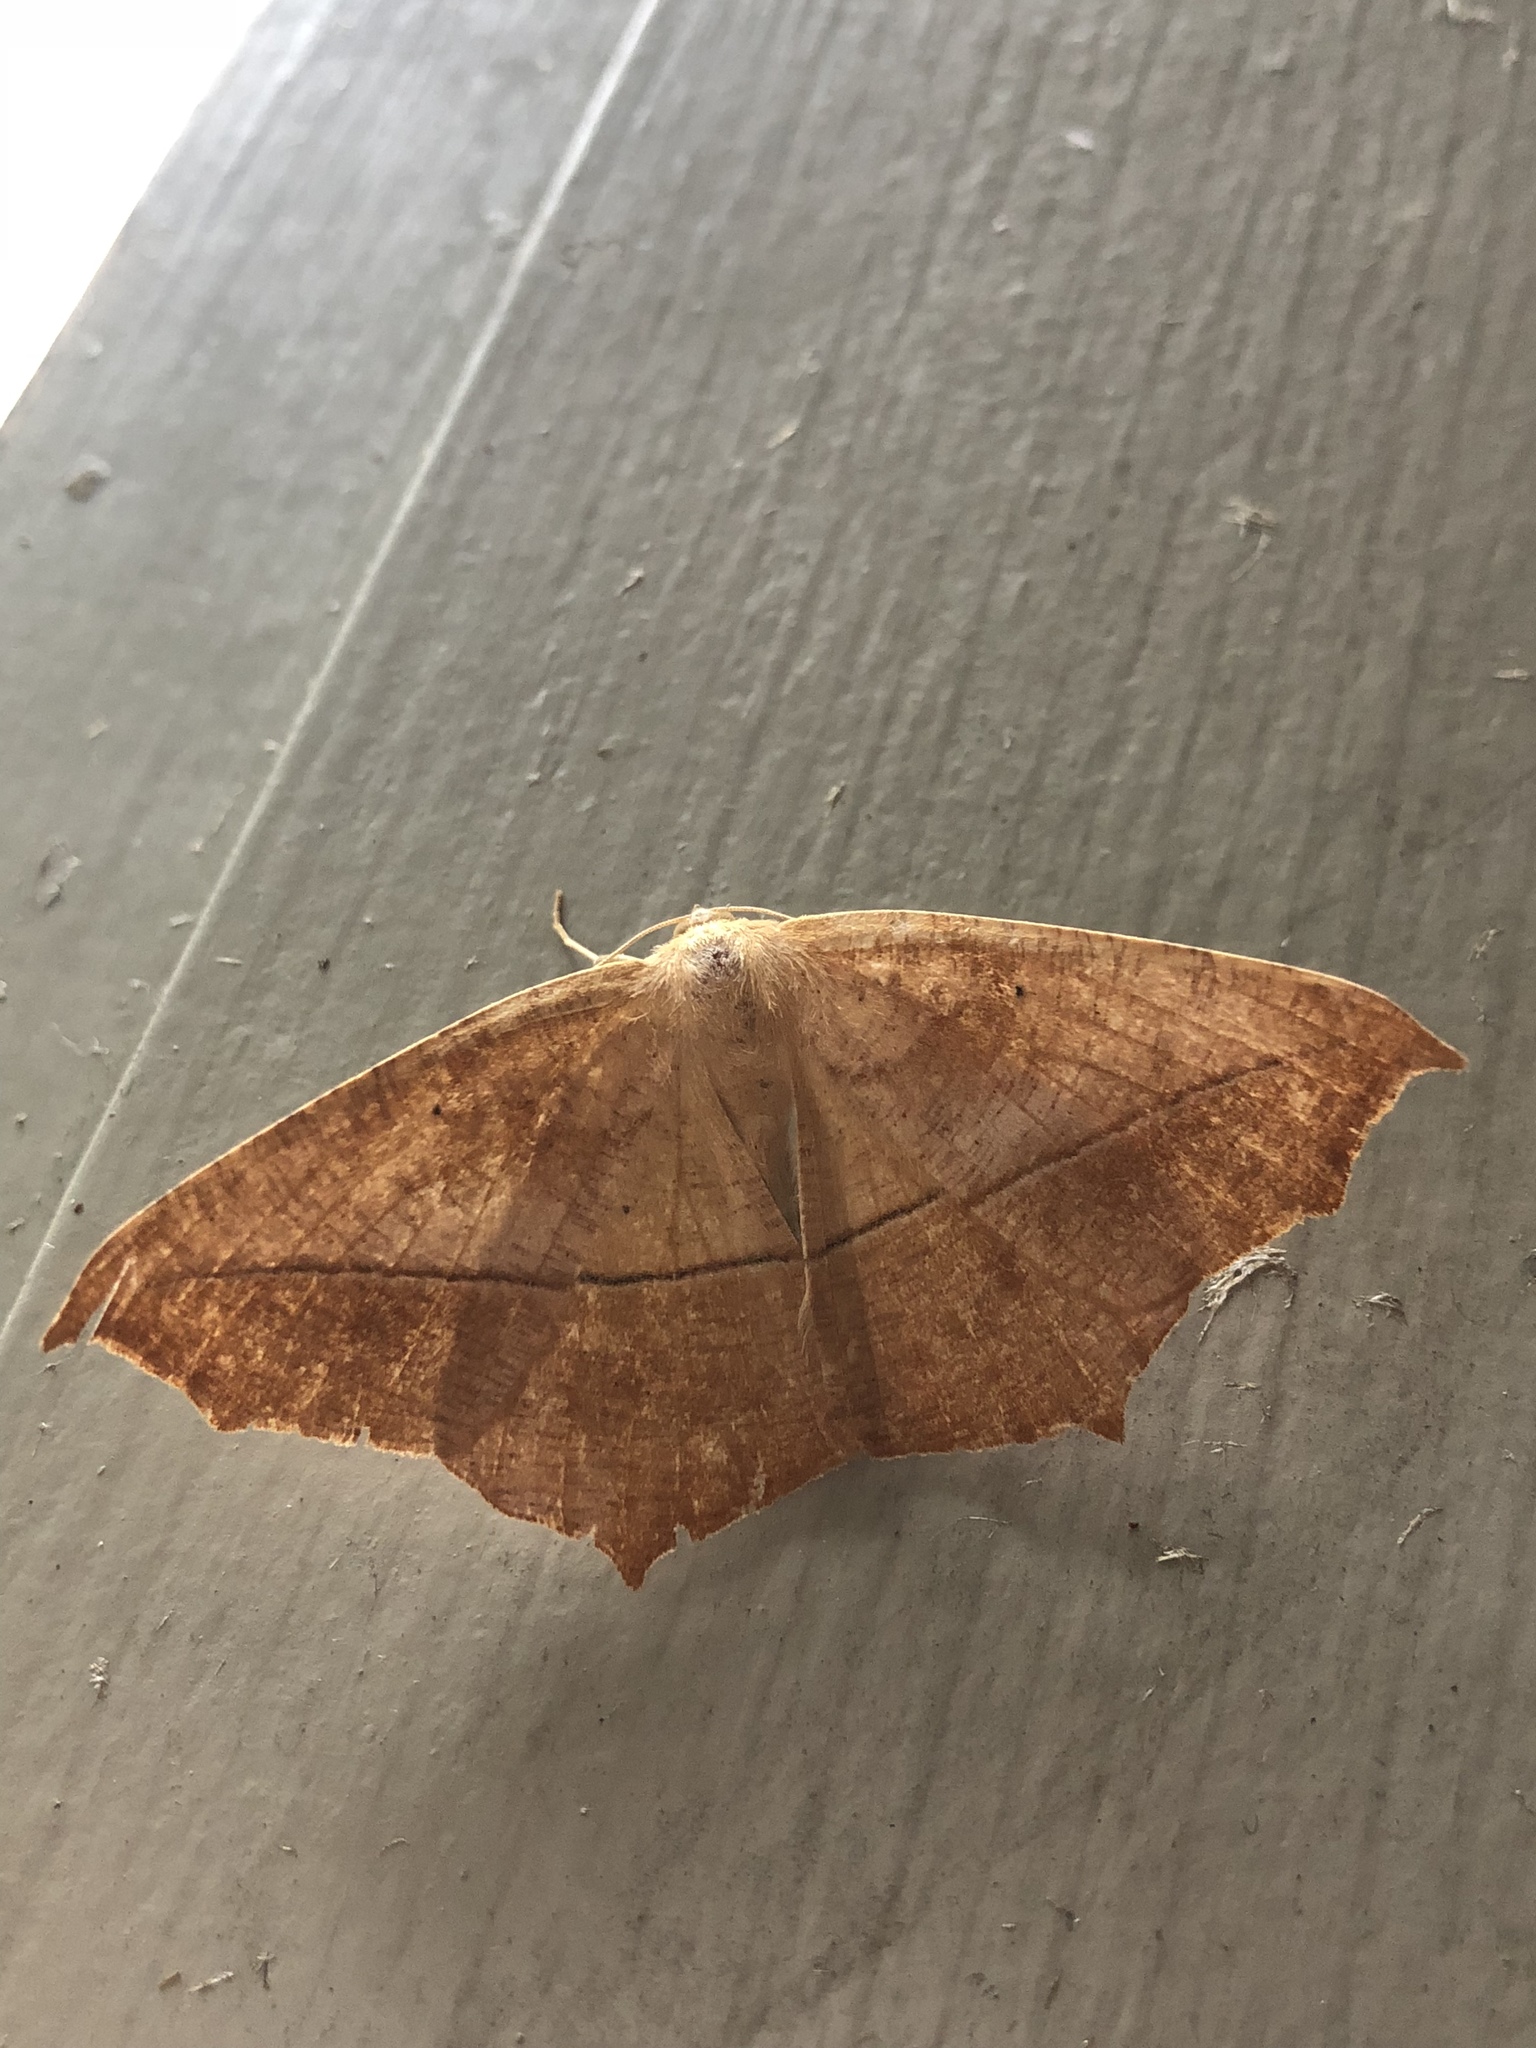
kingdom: Animalia
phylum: Arthropoda
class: Insecta
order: Lepidoptera
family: Geometridae
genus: Prochoerodes
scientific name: Prochoerodes lineola
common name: Large maple spanworm
